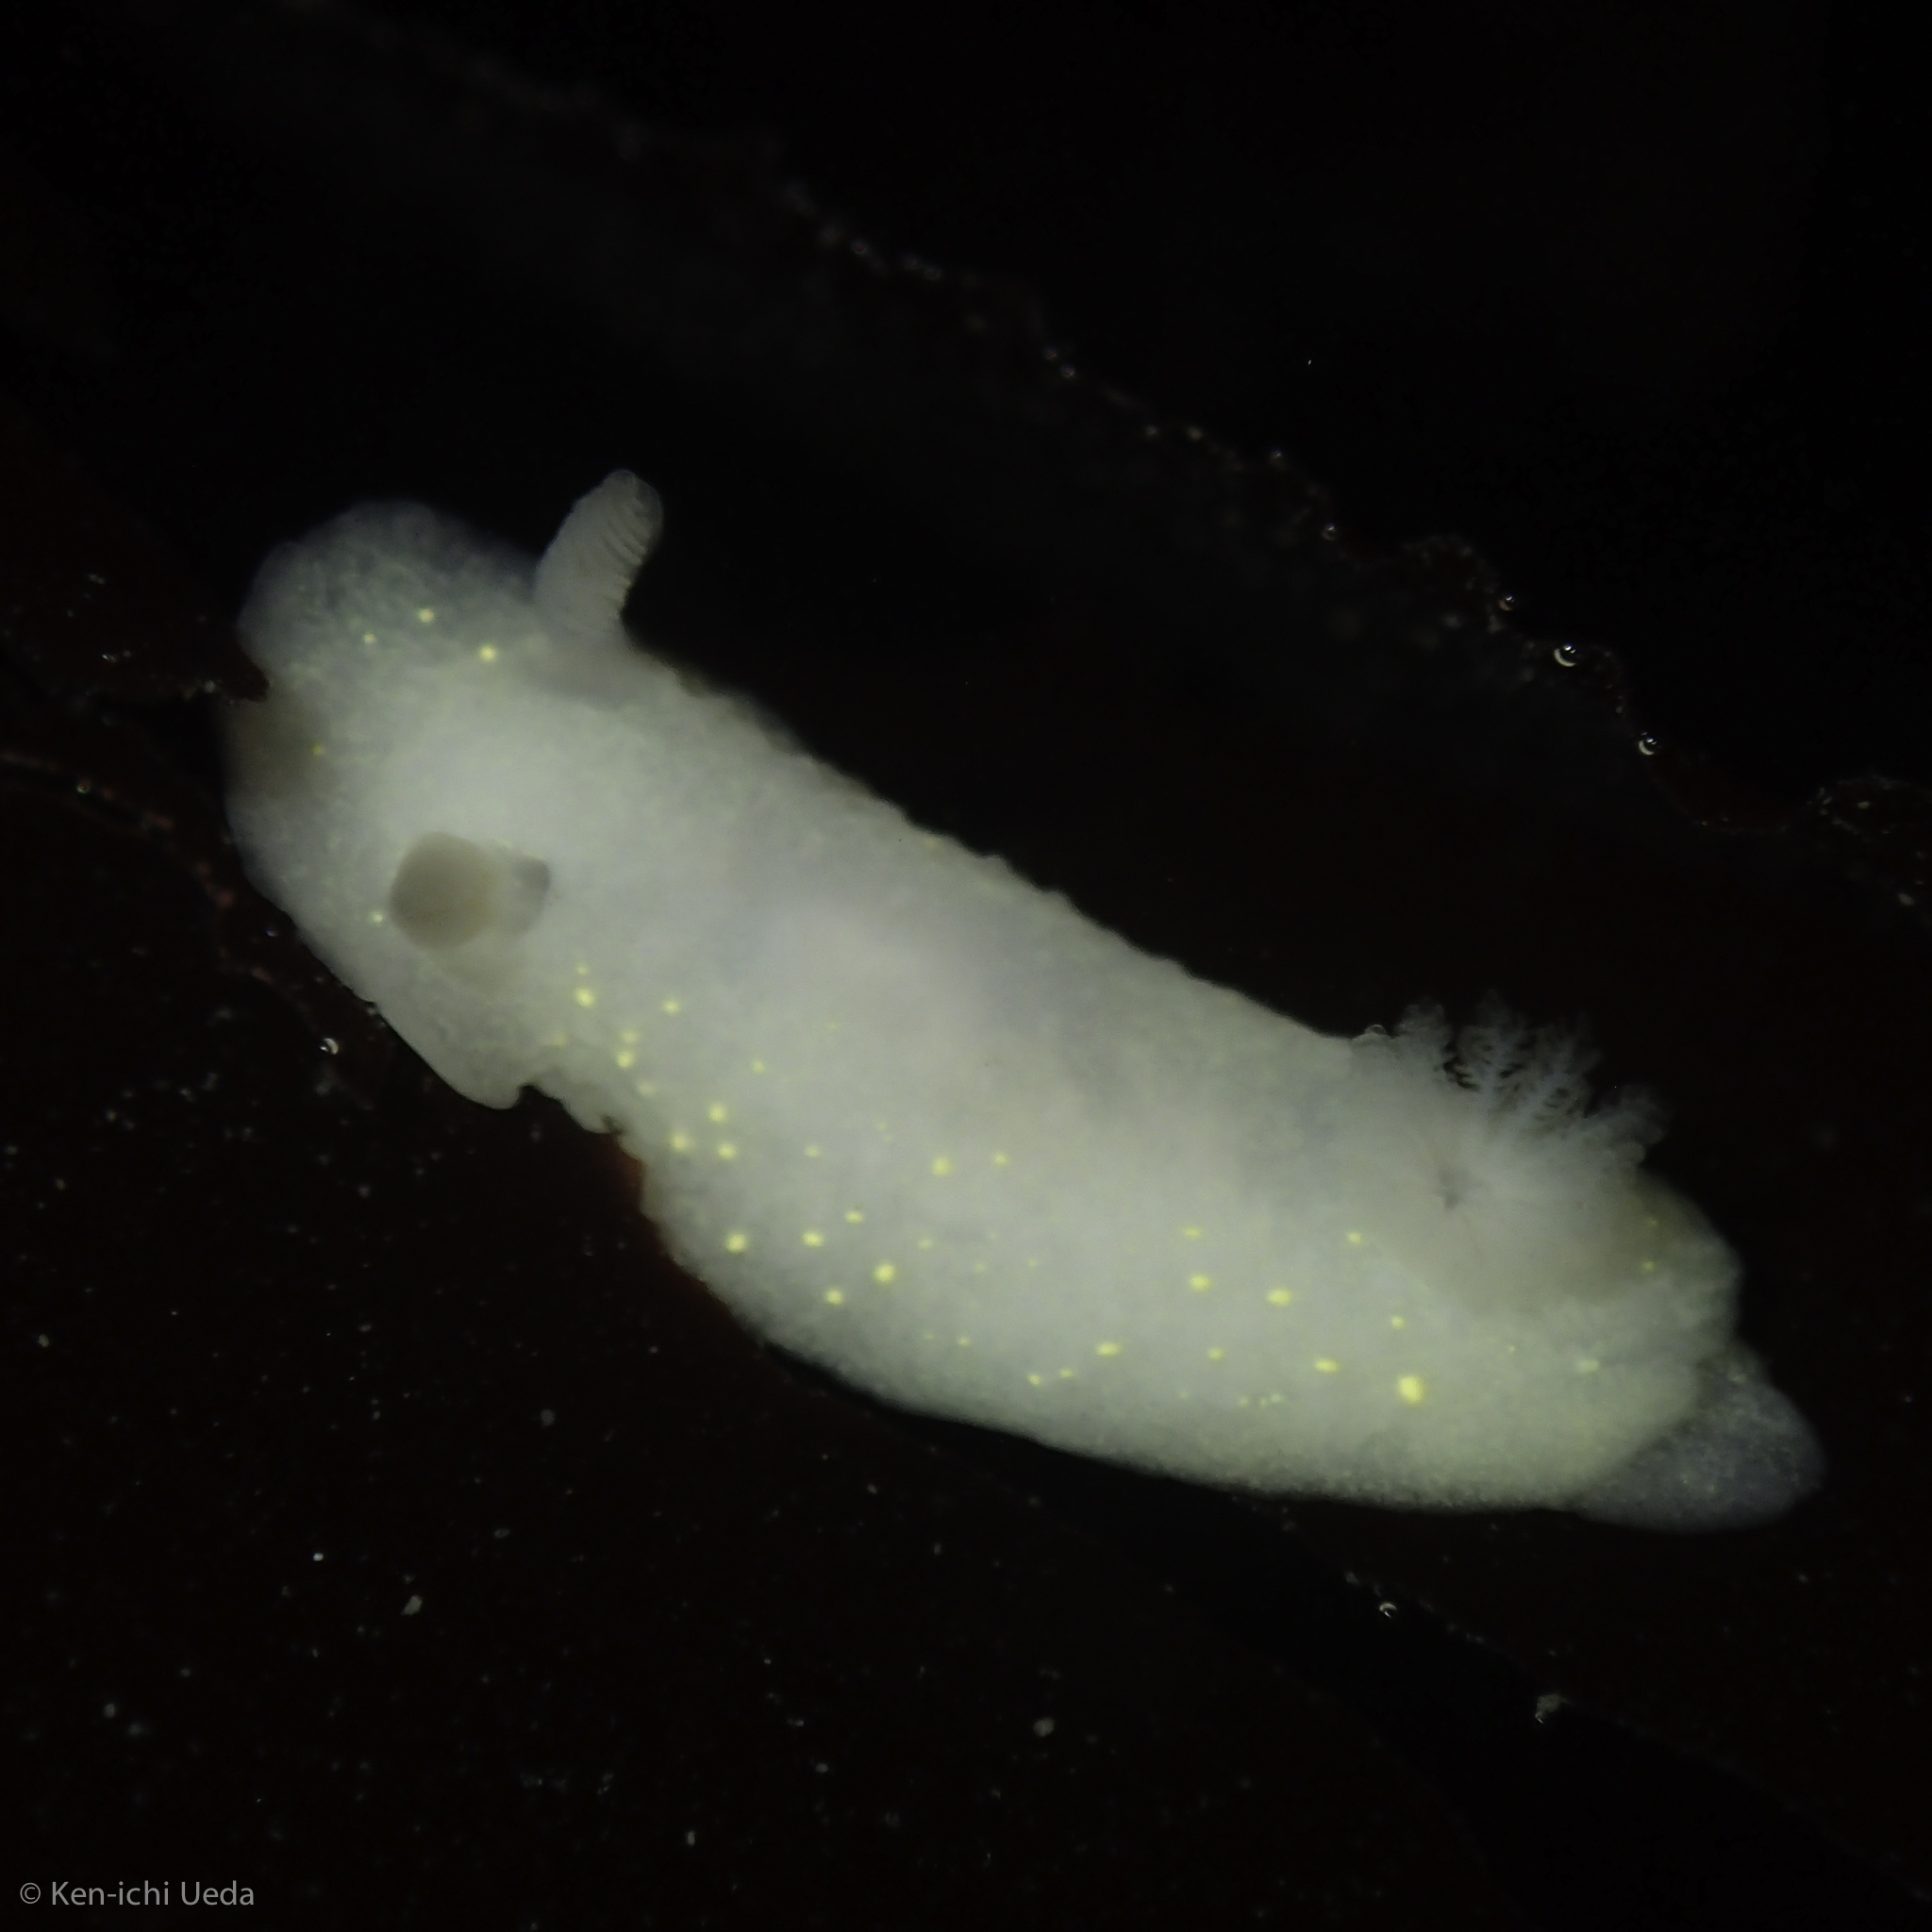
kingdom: Animalia
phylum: Mollusca
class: Gastropoda
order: Nudibranchia
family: Cadlinidae
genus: Cadlina
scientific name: Cadlina modesta
